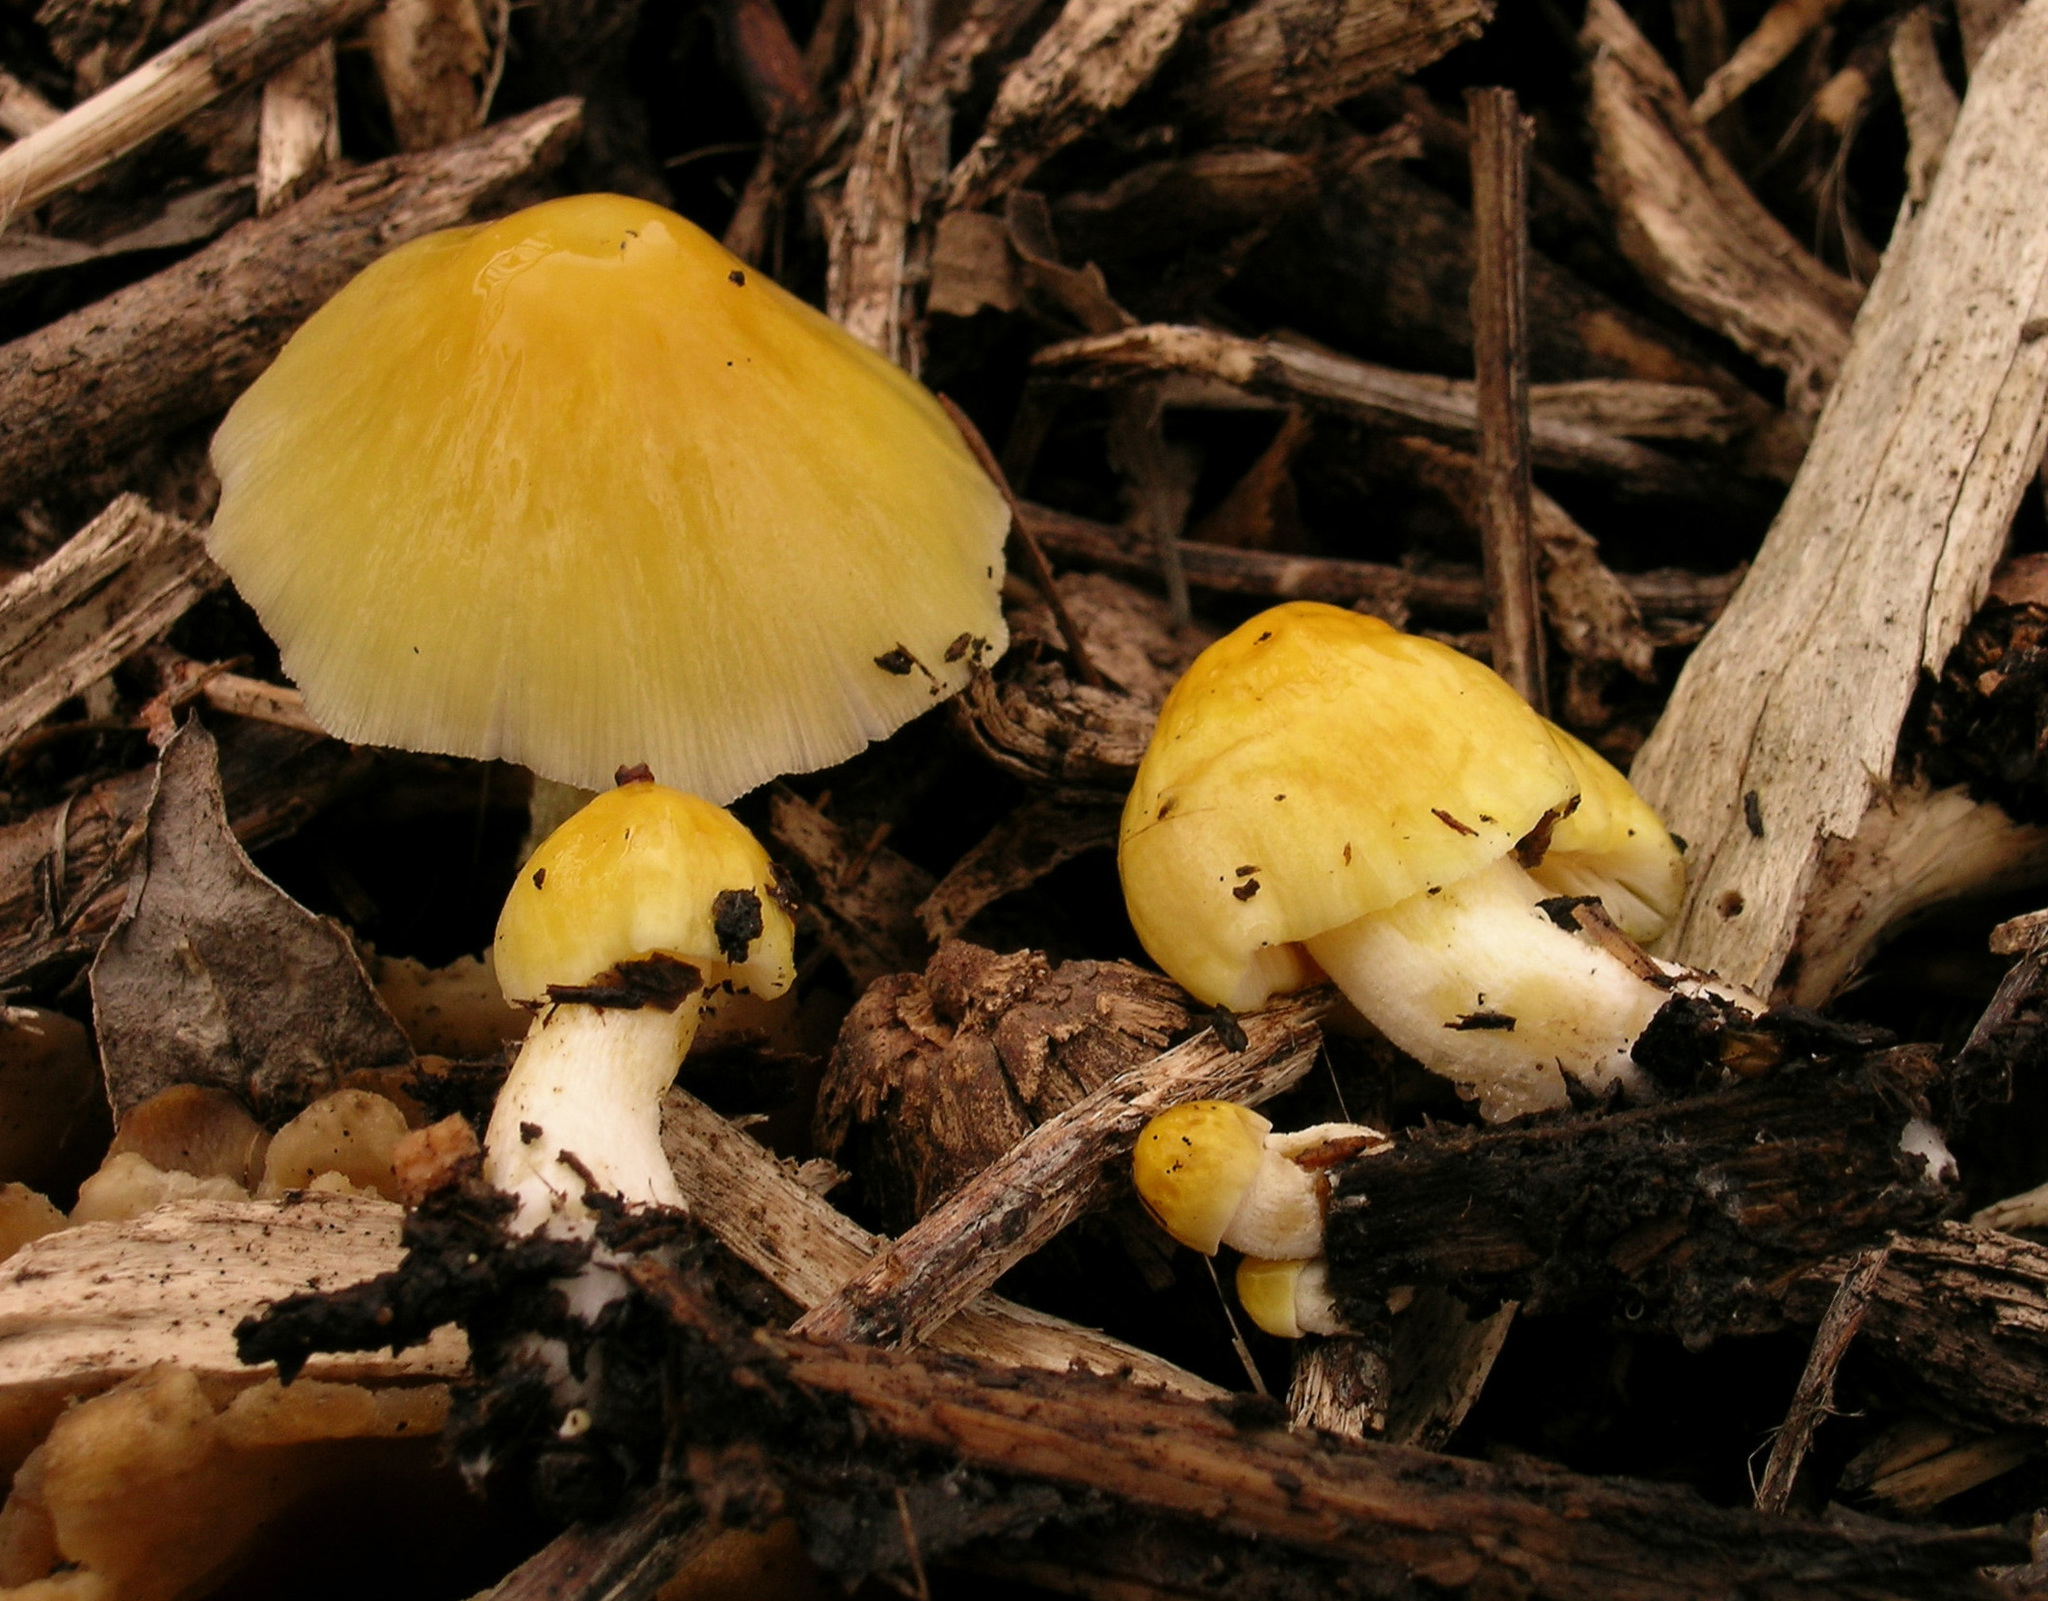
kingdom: Fungi
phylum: Basidiomycota
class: Agaricomycetes
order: Agaricales
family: Bolbitiaceae
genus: Bolbitius
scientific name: Bolbitius titubans
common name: Yellow fieldcap
